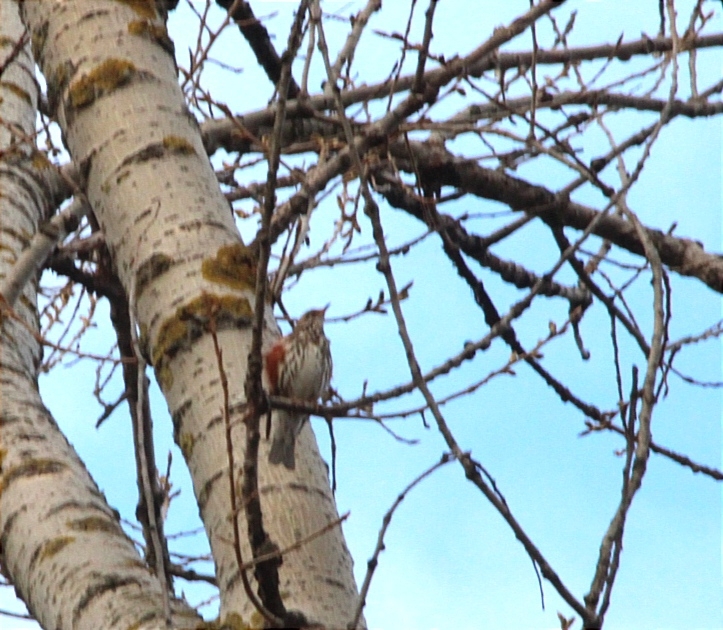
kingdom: Animalia
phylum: Chordata
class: Aves
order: Passeriformes
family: Turdidae
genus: Turdus
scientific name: Turdus iliacus
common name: Redwing
